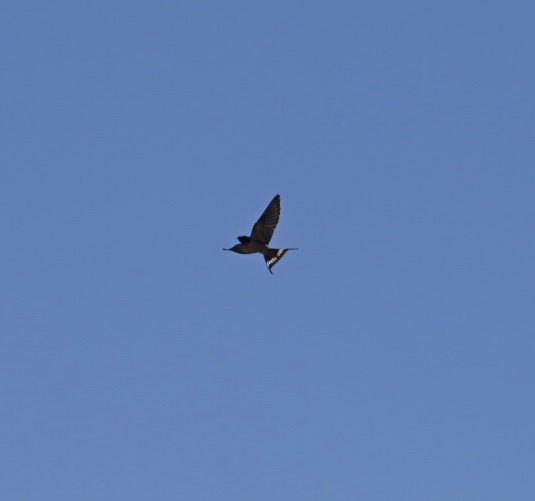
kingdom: Animalia
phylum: Chordata
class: Aves
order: Passeriformes
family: Hirundinidae
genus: Hirundo
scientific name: Hirundo rustica
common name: Barn swallow
